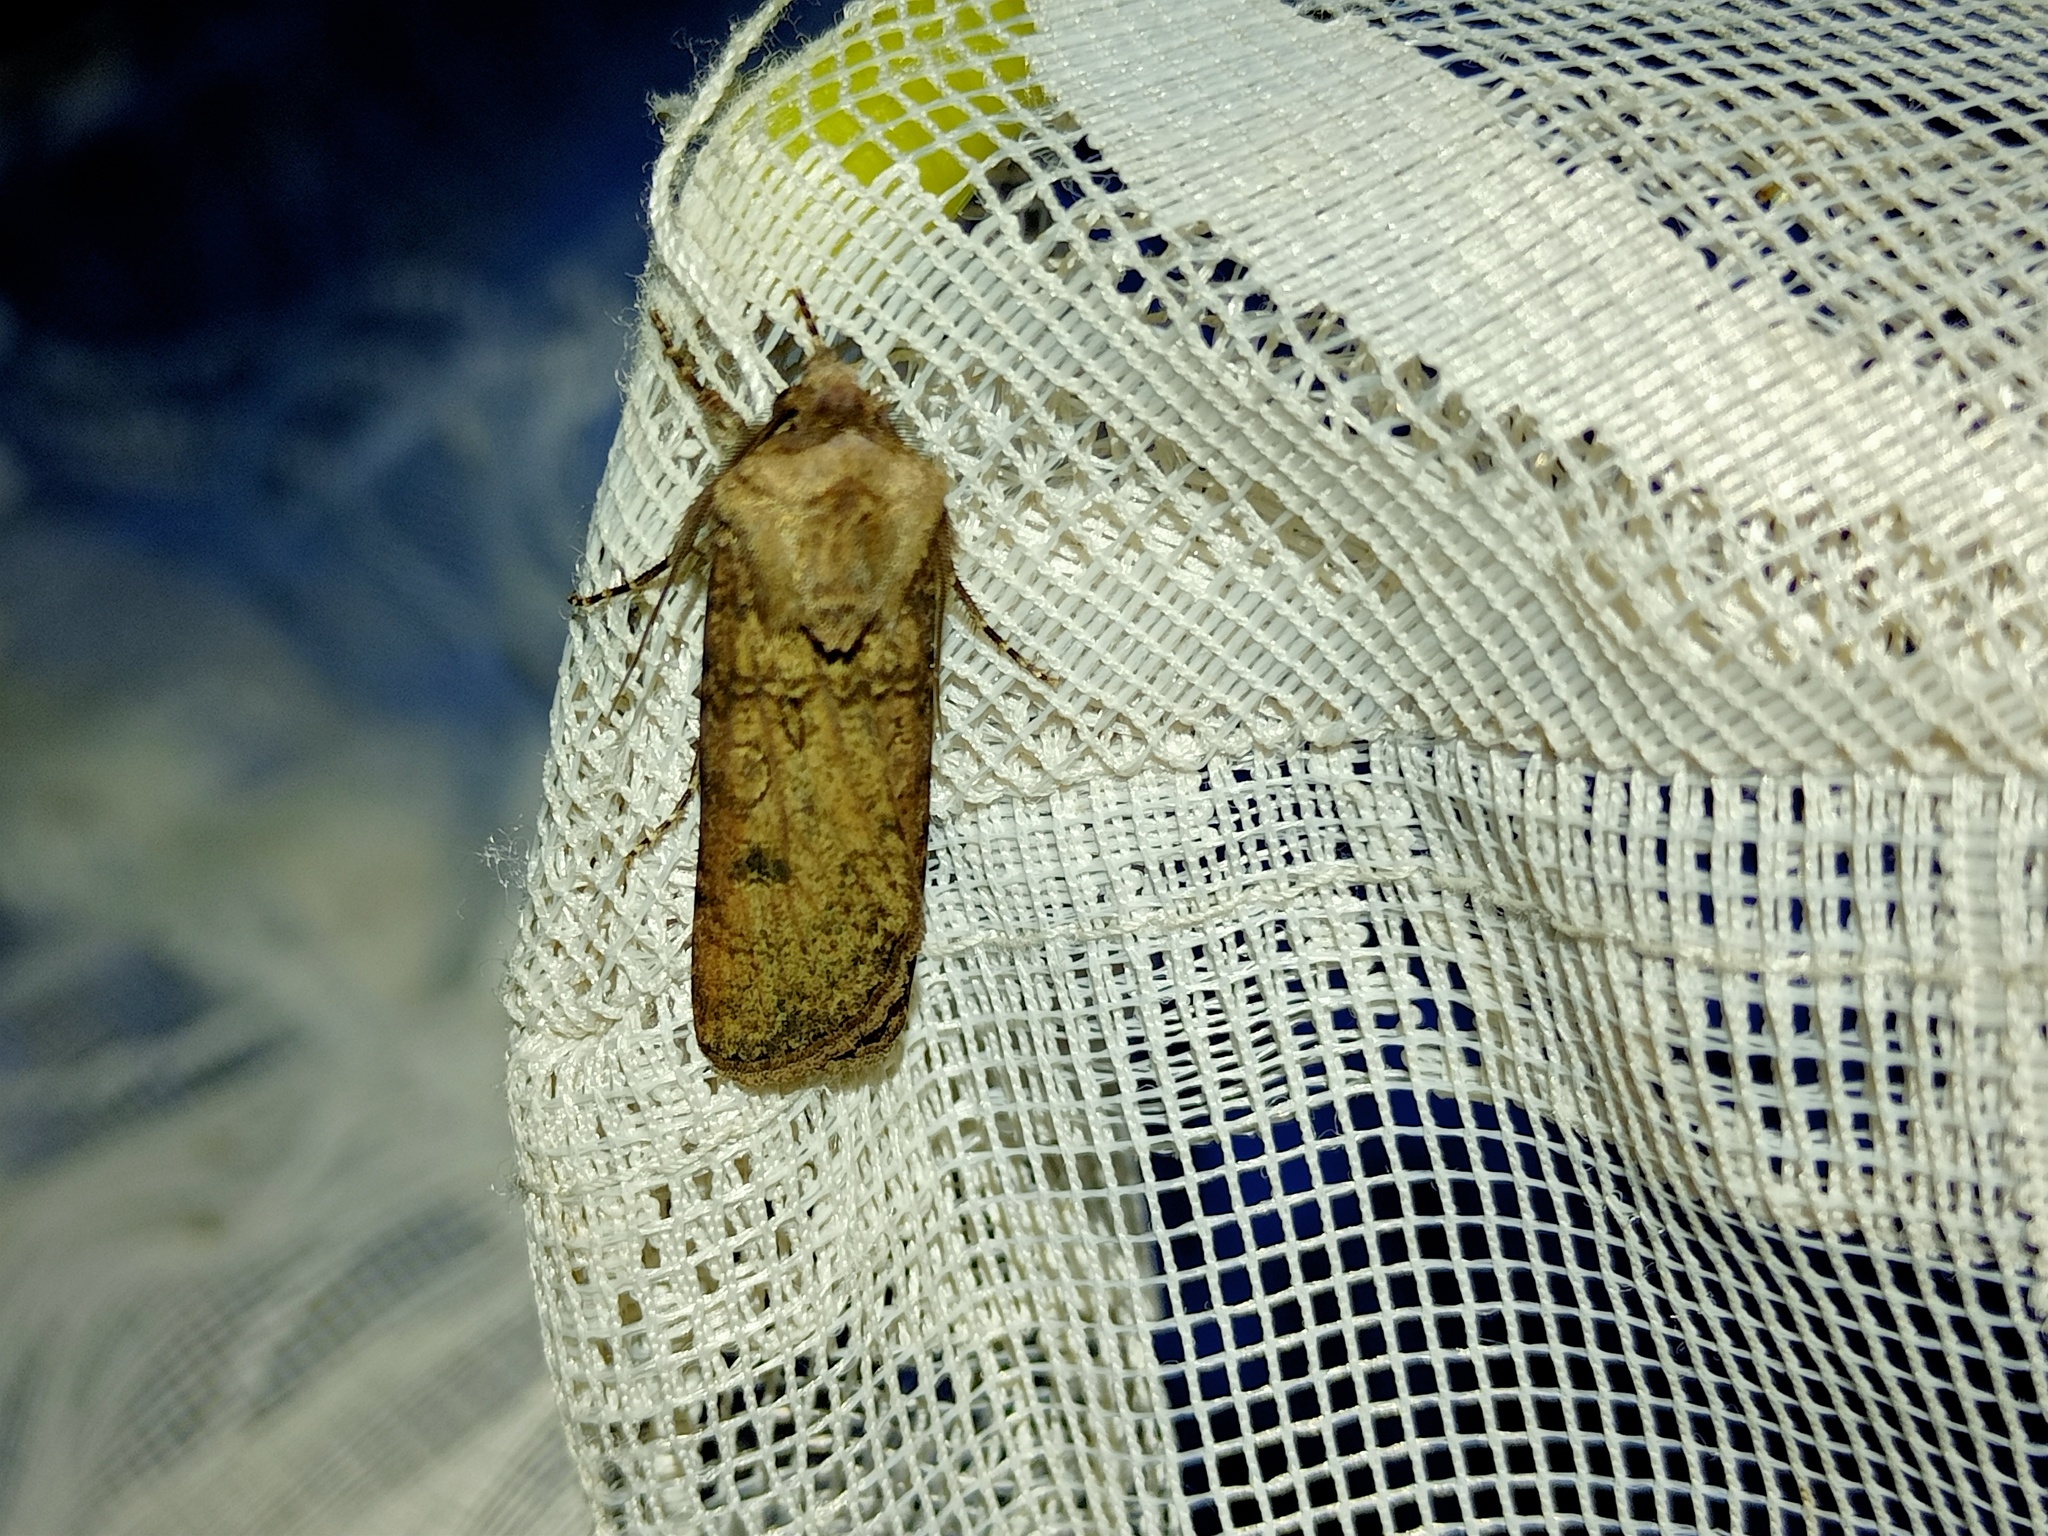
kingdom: Animalia
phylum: Arthropoda
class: Insecta
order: Lepidoptera
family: Noctuidae
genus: Agrotis
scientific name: Agrotis segetum
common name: Turnip moth
